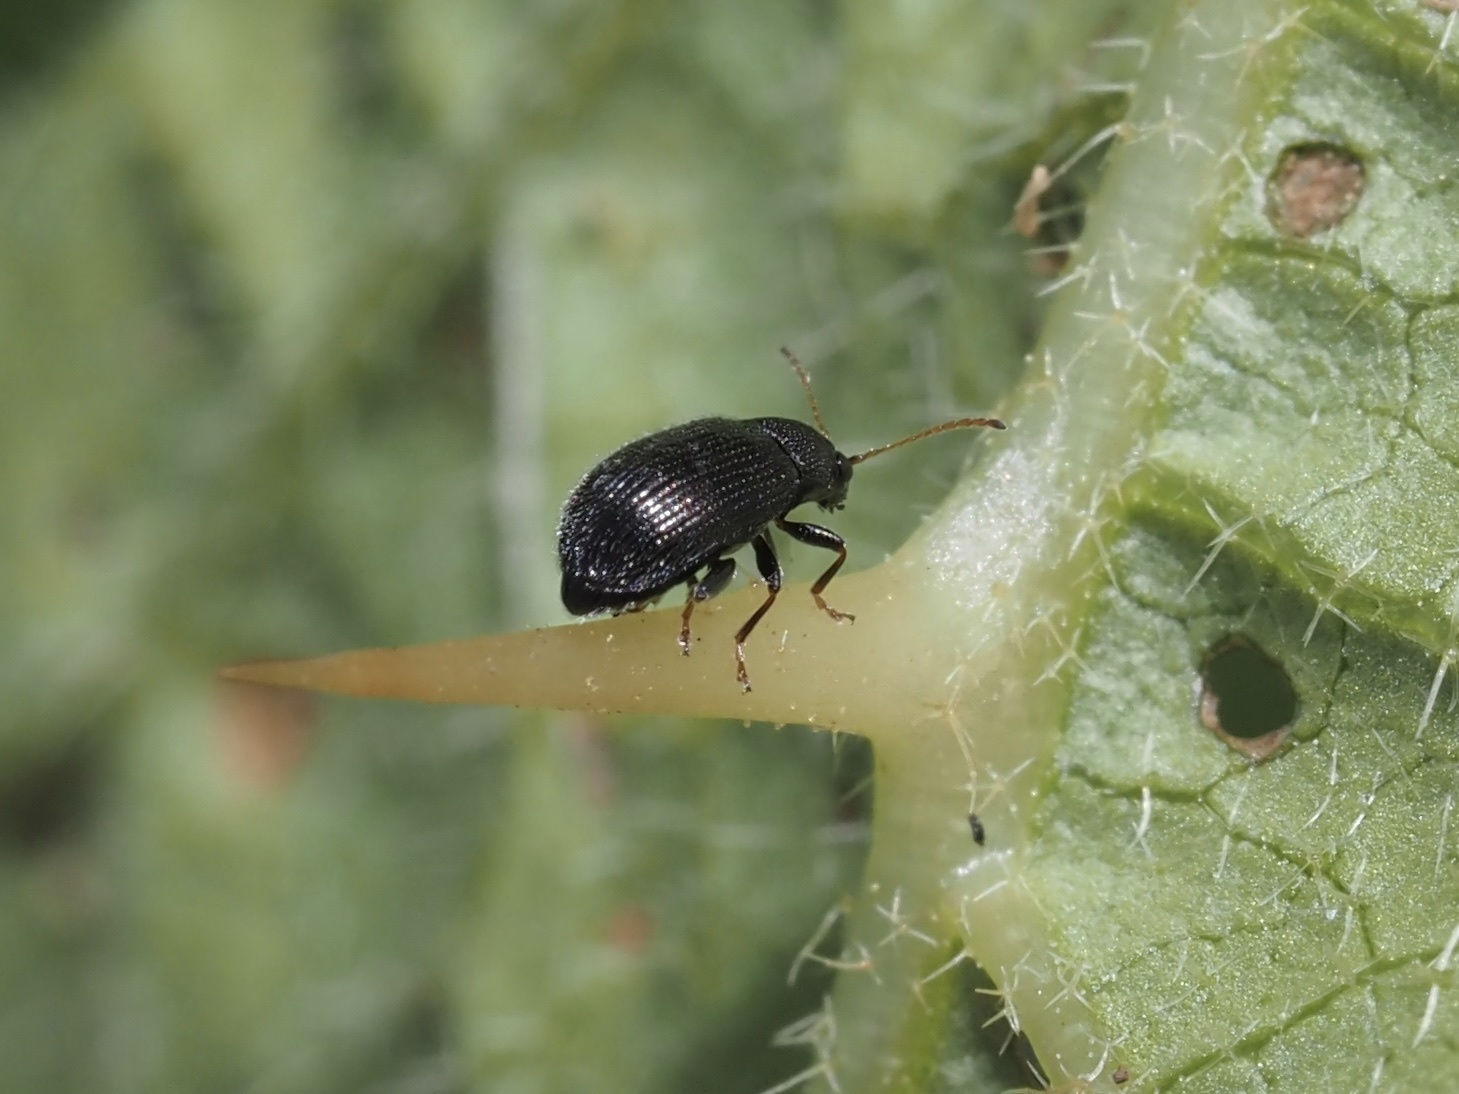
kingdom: Animalia
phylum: Arthropoda
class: Insecta
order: Coleoptera
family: Chrysomelidae
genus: Epitrix
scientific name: Epitrix fuscula
